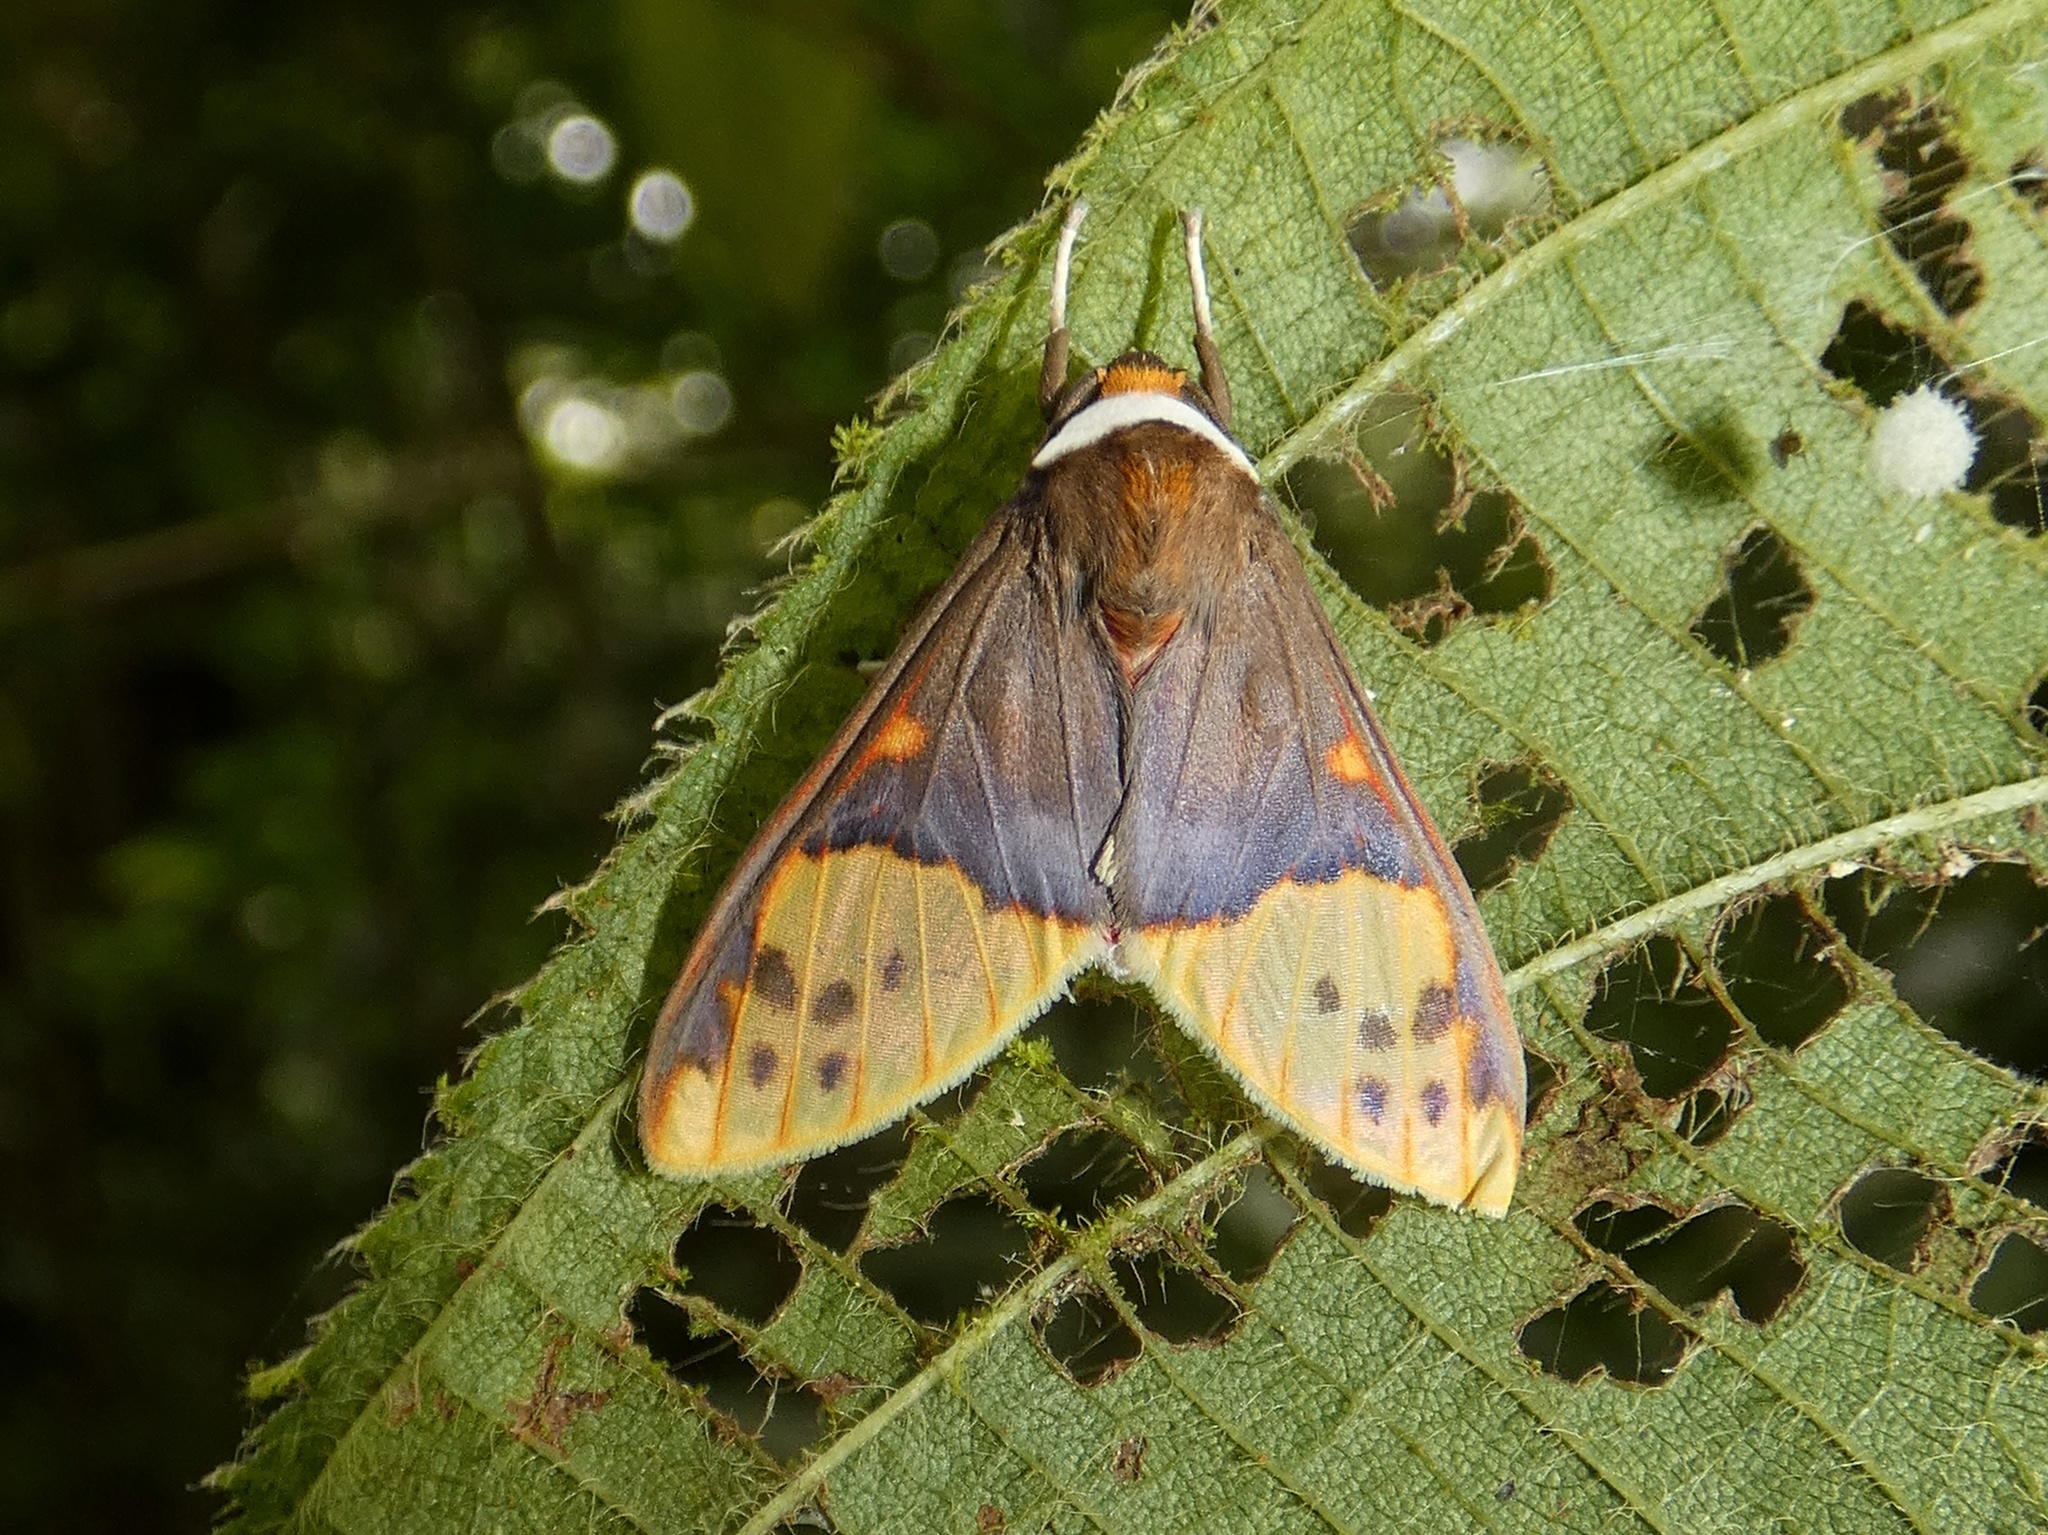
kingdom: Animalia
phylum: Arthropoda
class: Insecta
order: Lepidoptera
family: Erebidae
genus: Evius
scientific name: Evius hippia
